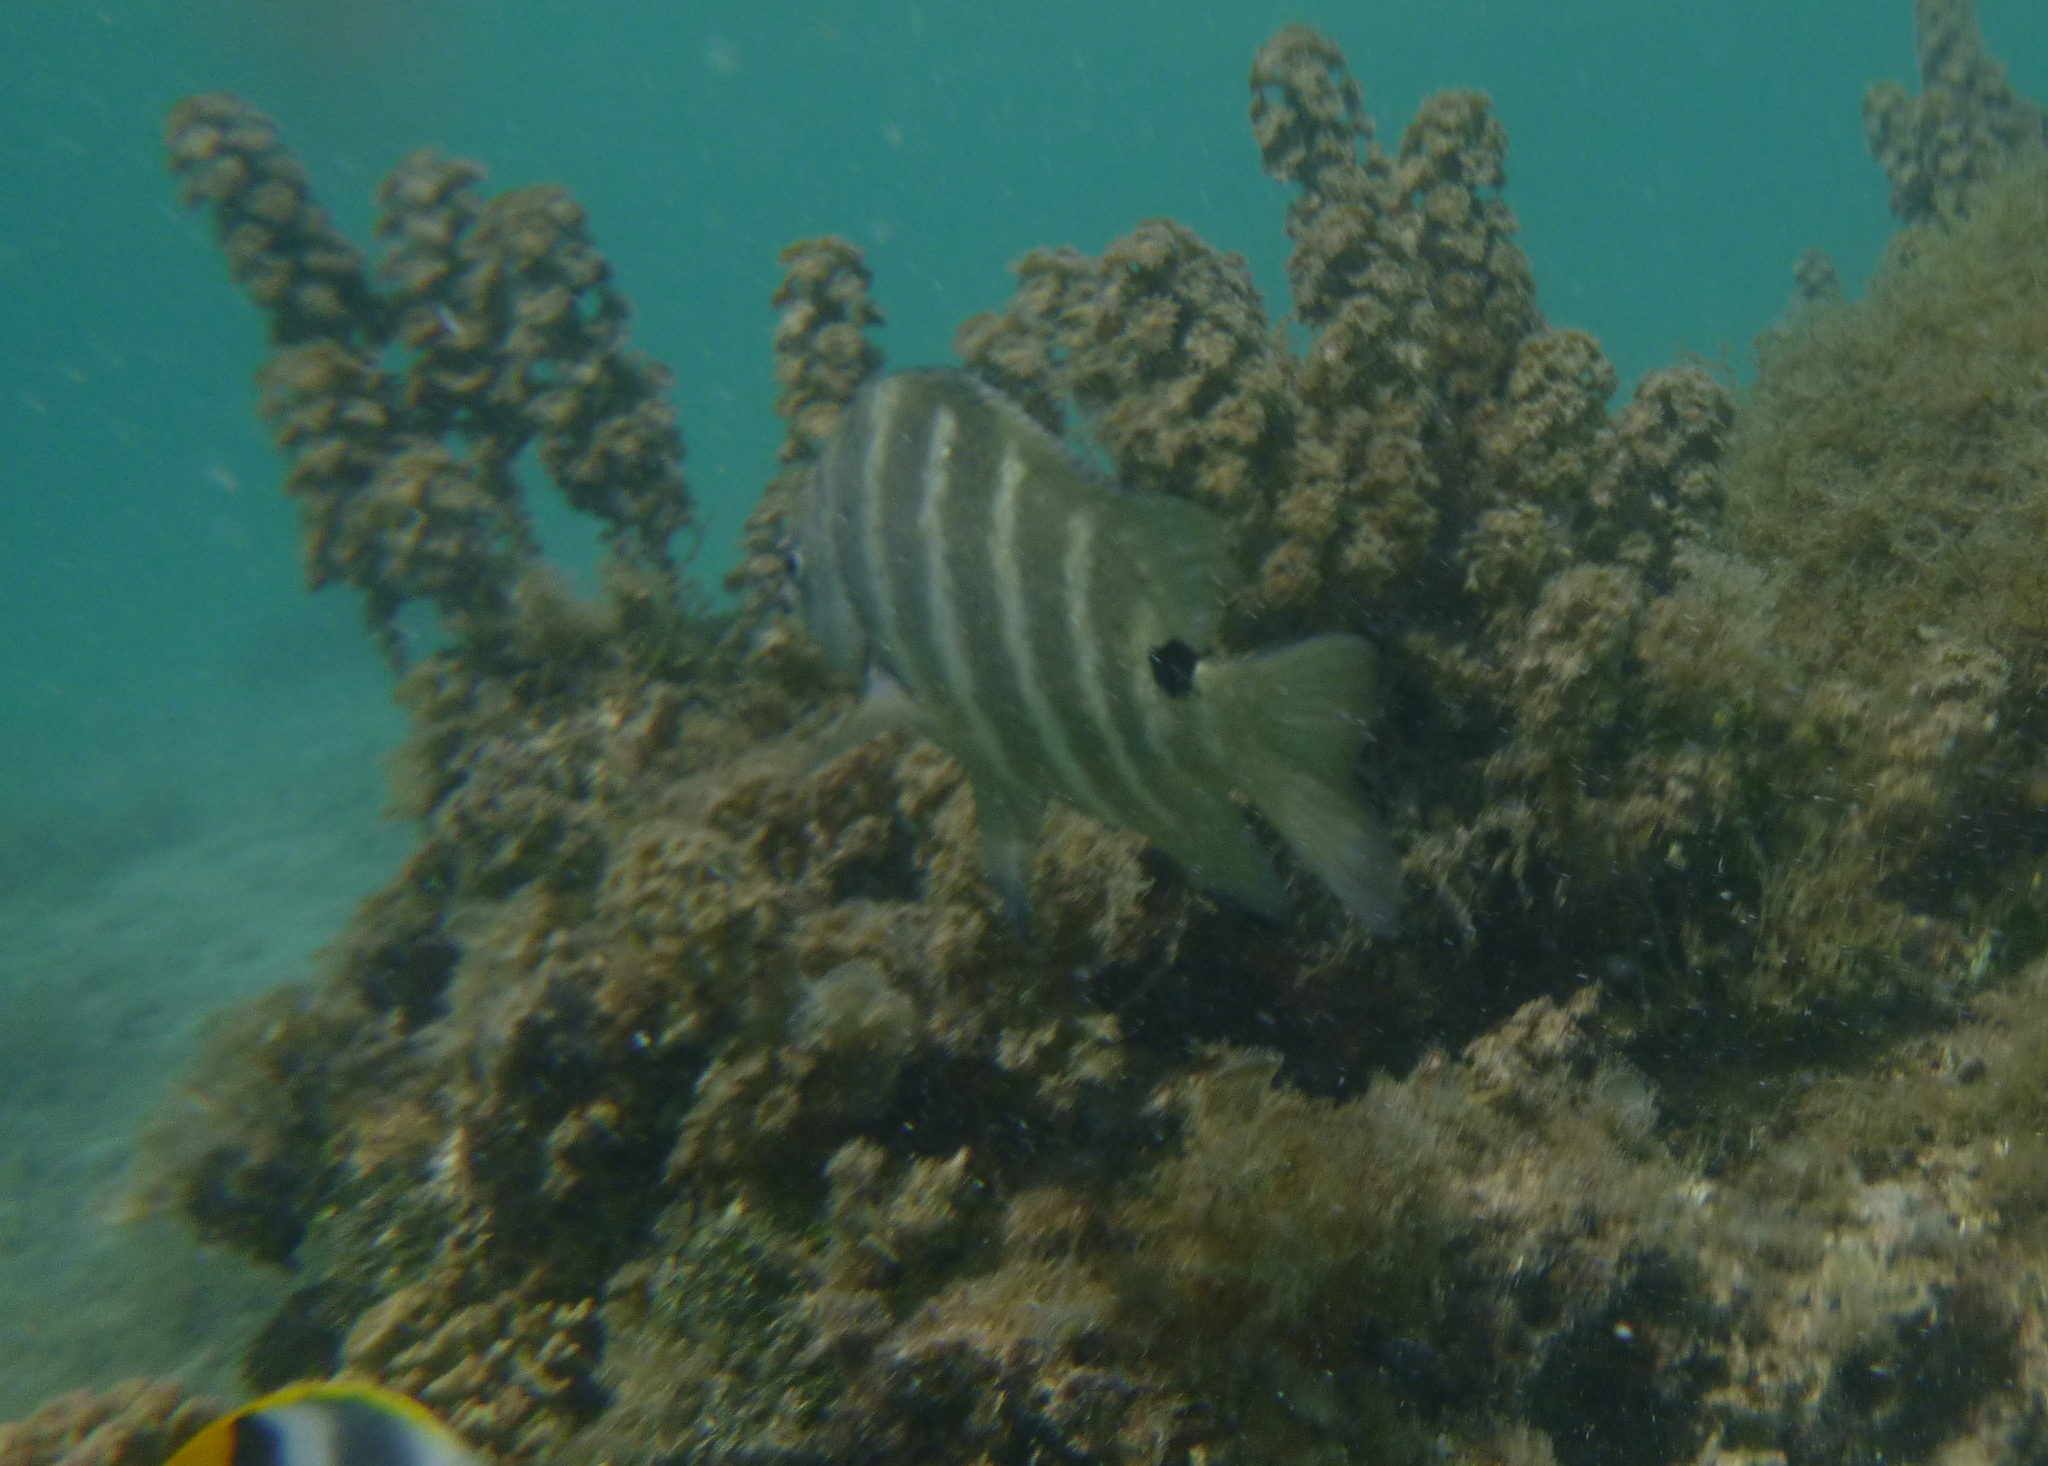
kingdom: Animalia
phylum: Chordata
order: Perciformes
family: Pomacentridae
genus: Abudefduf
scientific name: Abudefduf sordidus
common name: Blackspot sergeant
